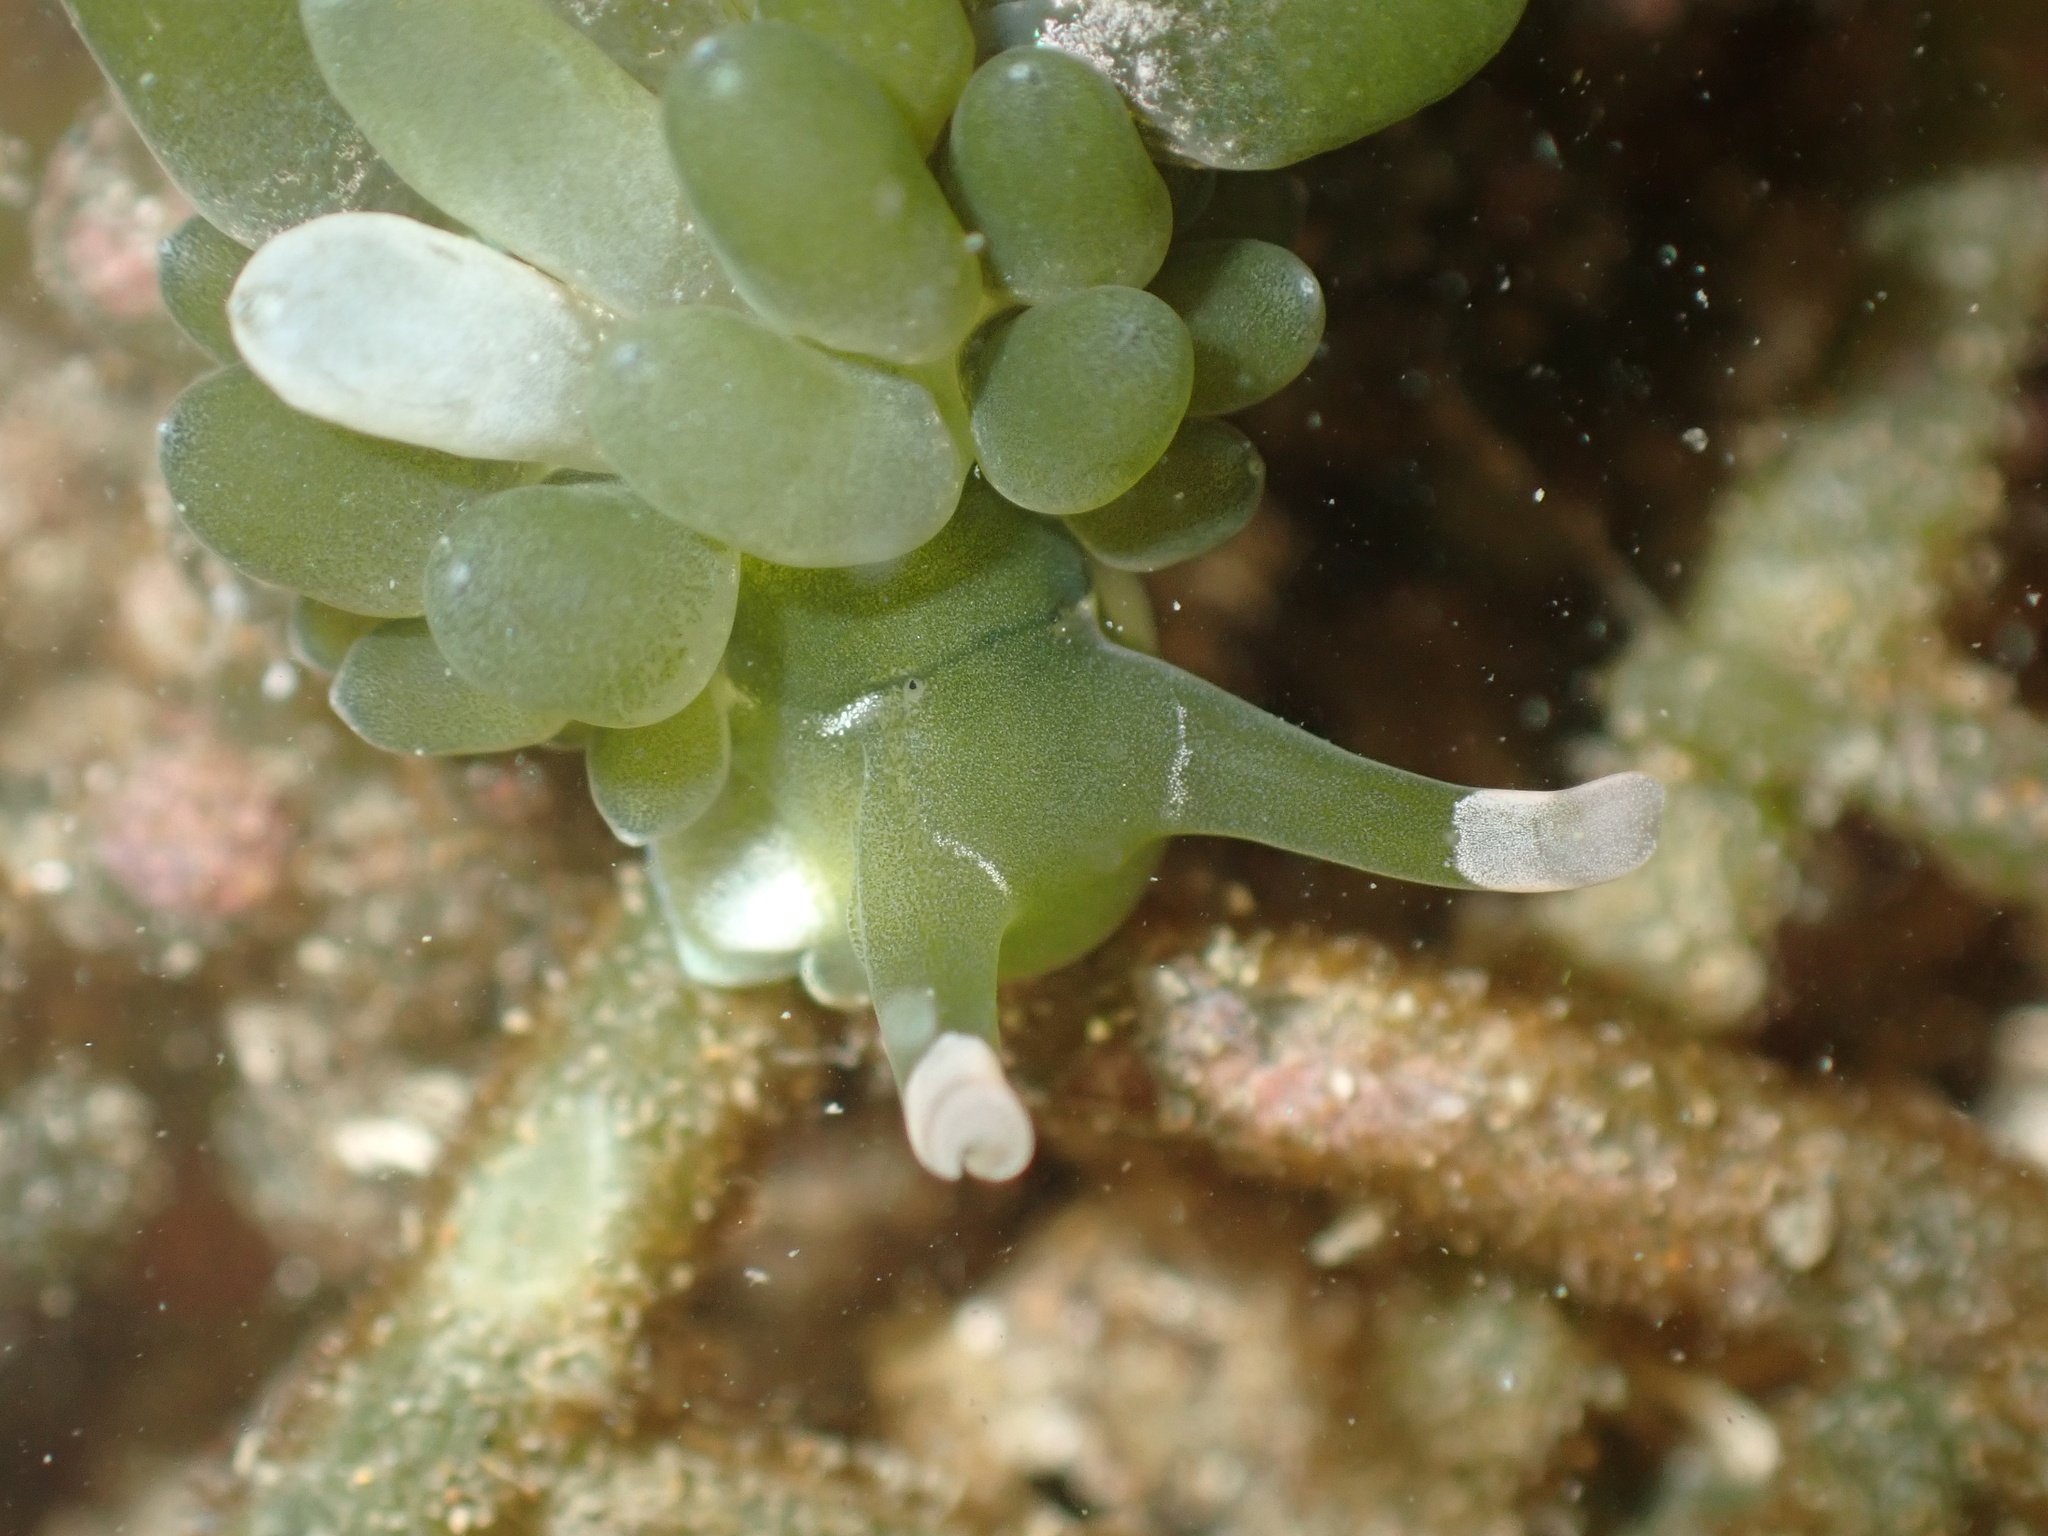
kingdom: Animalia
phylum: Mollusca
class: Gastropoda
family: Limapontiidae
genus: Sacoproteus
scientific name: Sacoproteus smaragdinus
